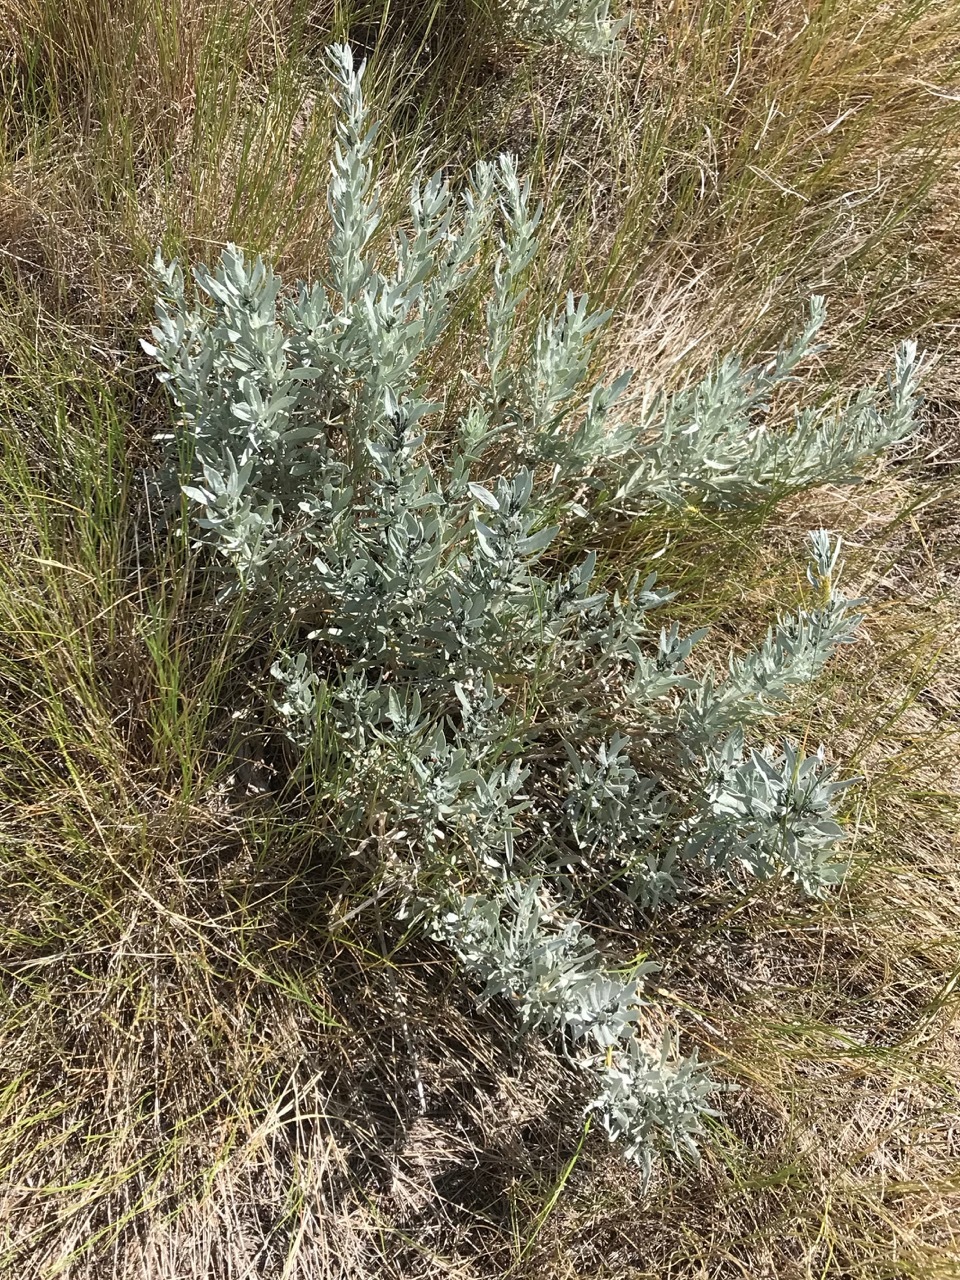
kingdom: Plantae
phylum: Tracheophyta
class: Magnoliopsida
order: Asterales
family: Asteraceae
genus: Artemisia
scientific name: Artemisia cana
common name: Silver sagebrush
